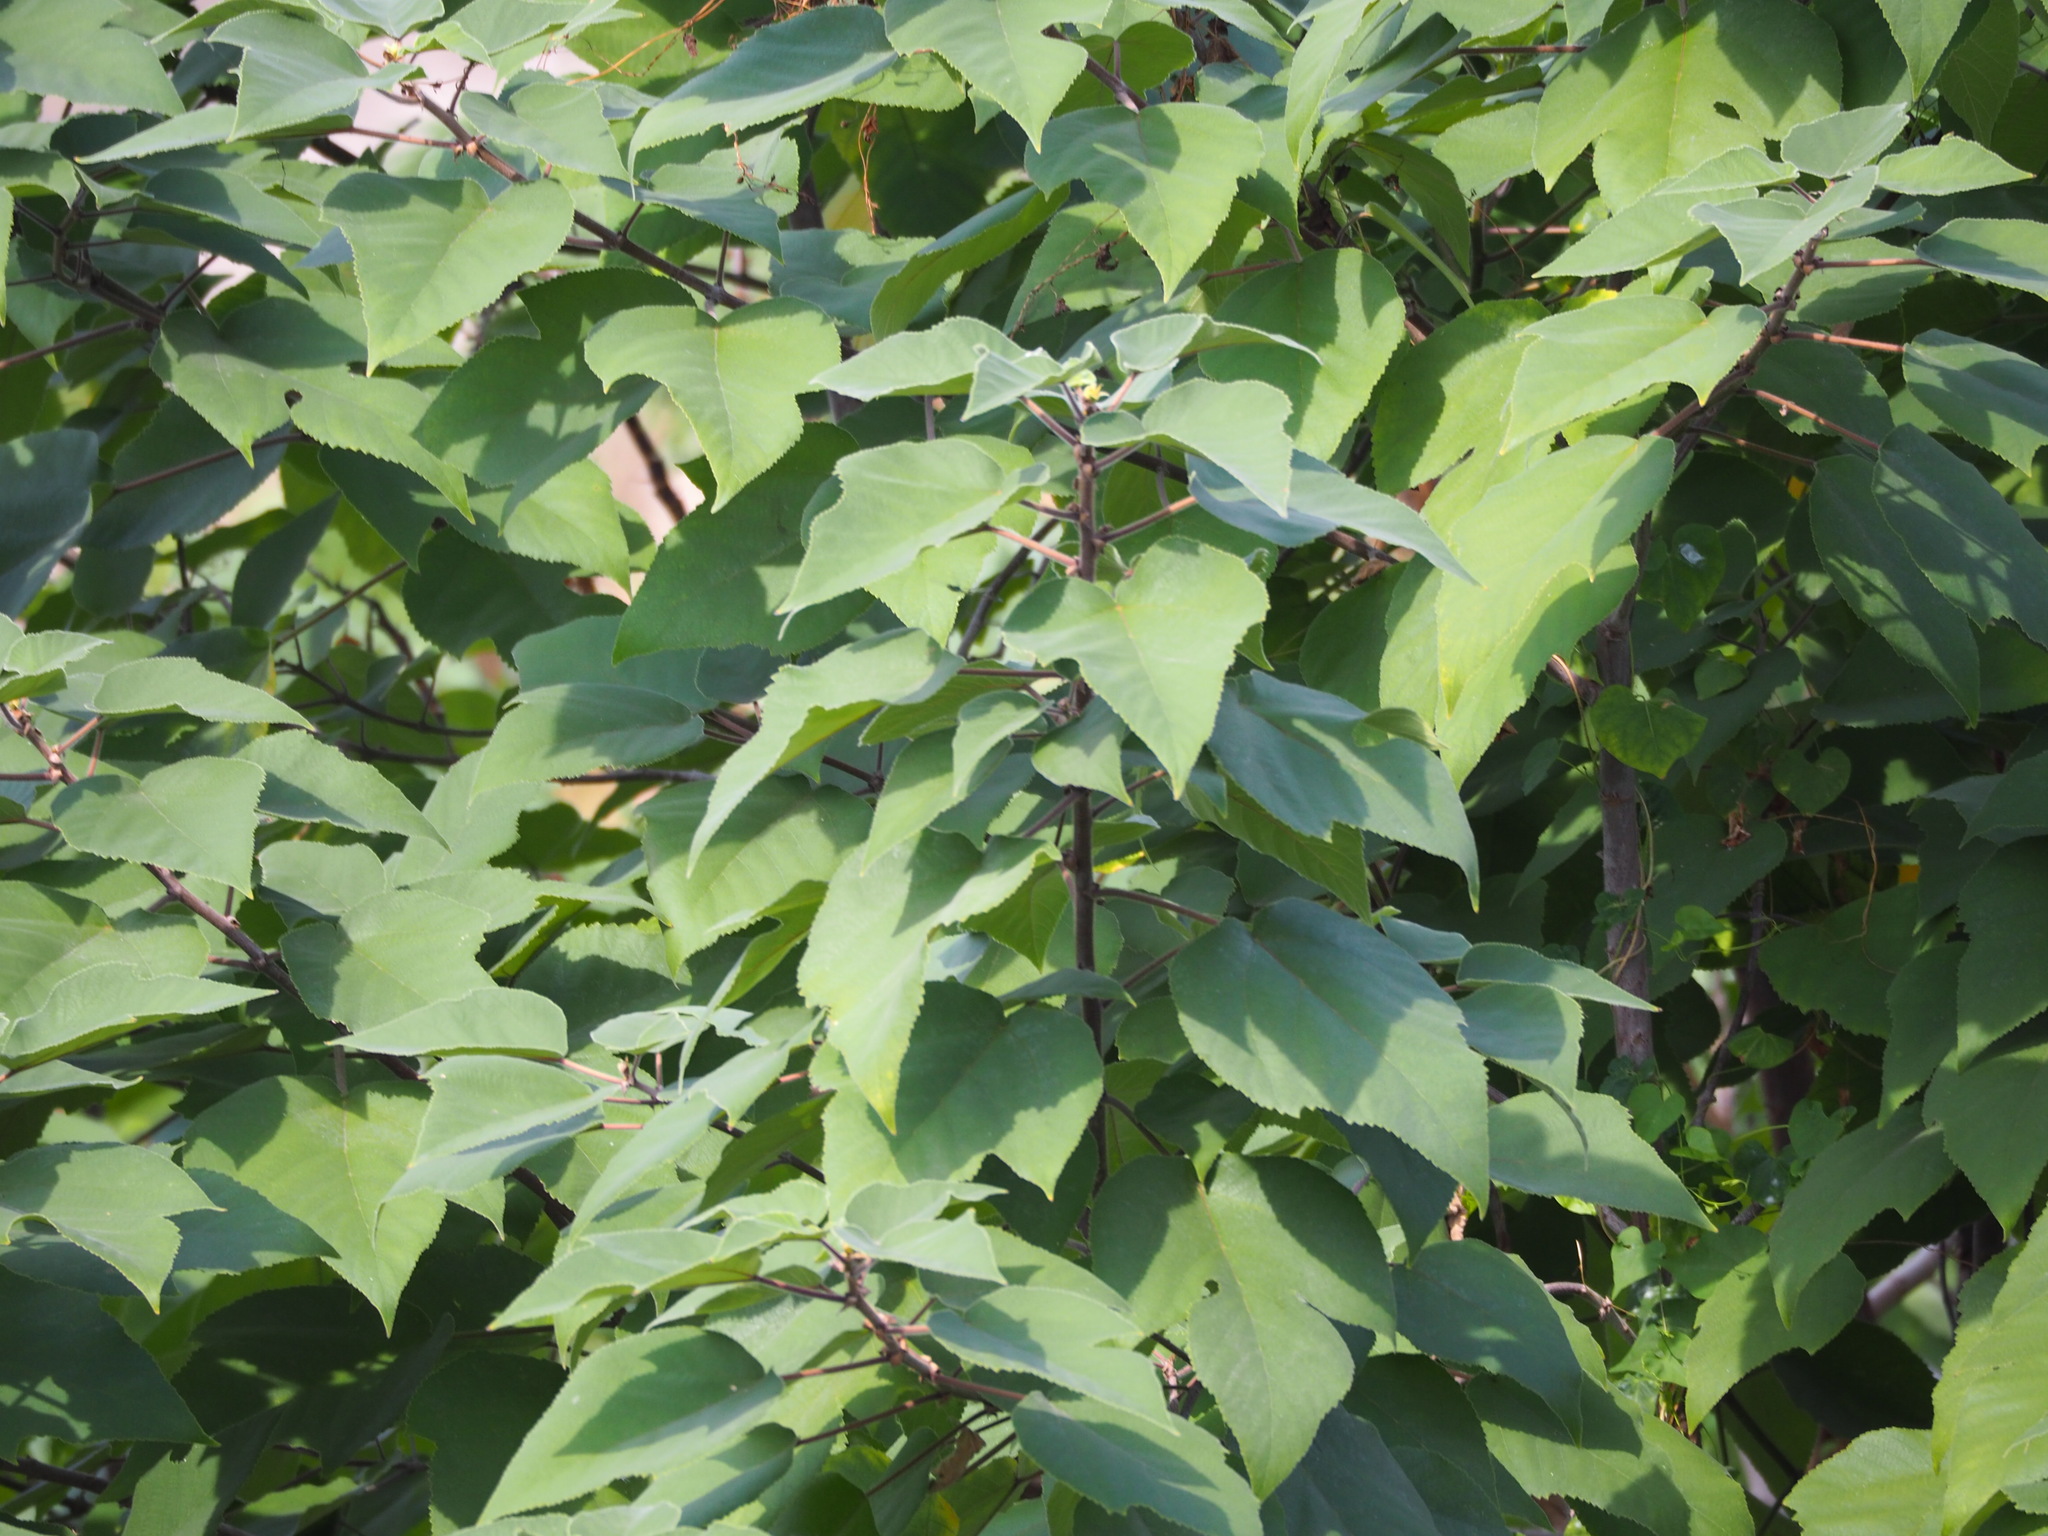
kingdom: Plantae
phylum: Tracheophyta
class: Magnoliopsida
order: Rosales
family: Moraceae
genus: Broussonetia
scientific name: Broussonetia papyrifera
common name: Paper mulberry
